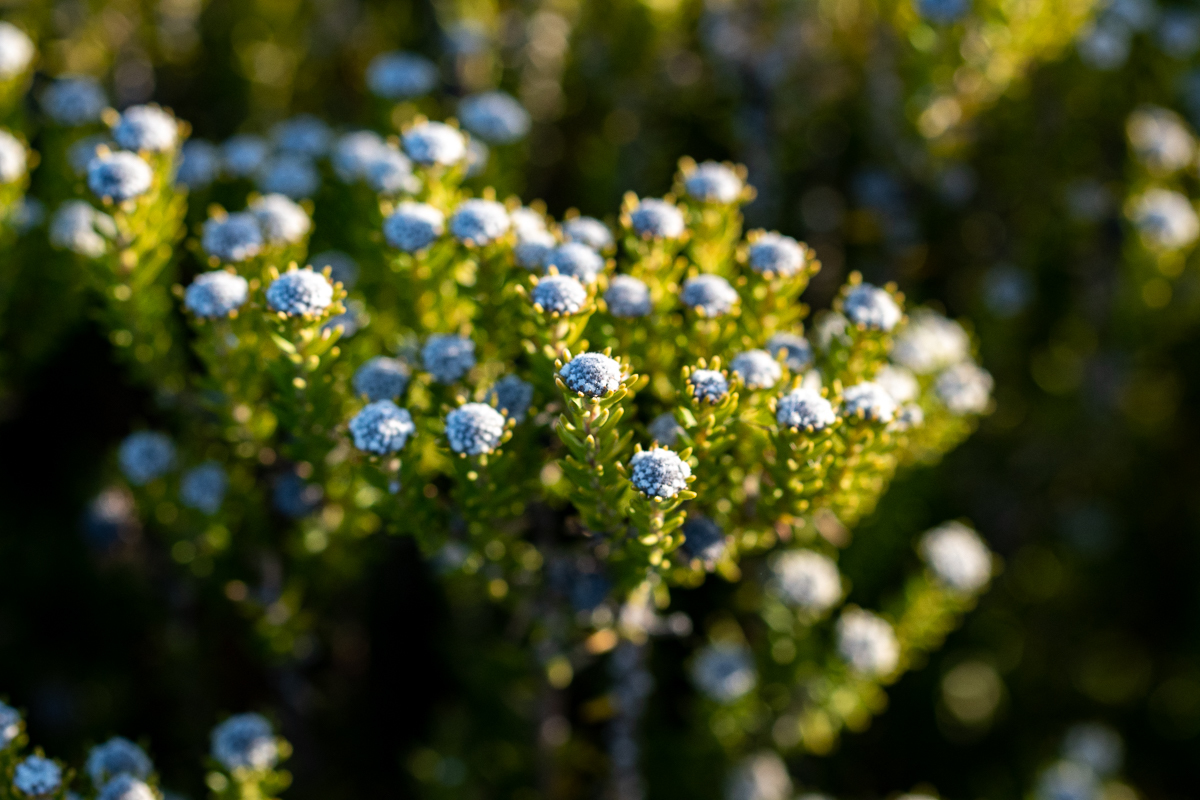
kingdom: Plantae
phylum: Tracheophyta
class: Magnoliopsida
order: Rosales
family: Rhamnaceae
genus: Phylica
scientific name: Phylica ericoides
